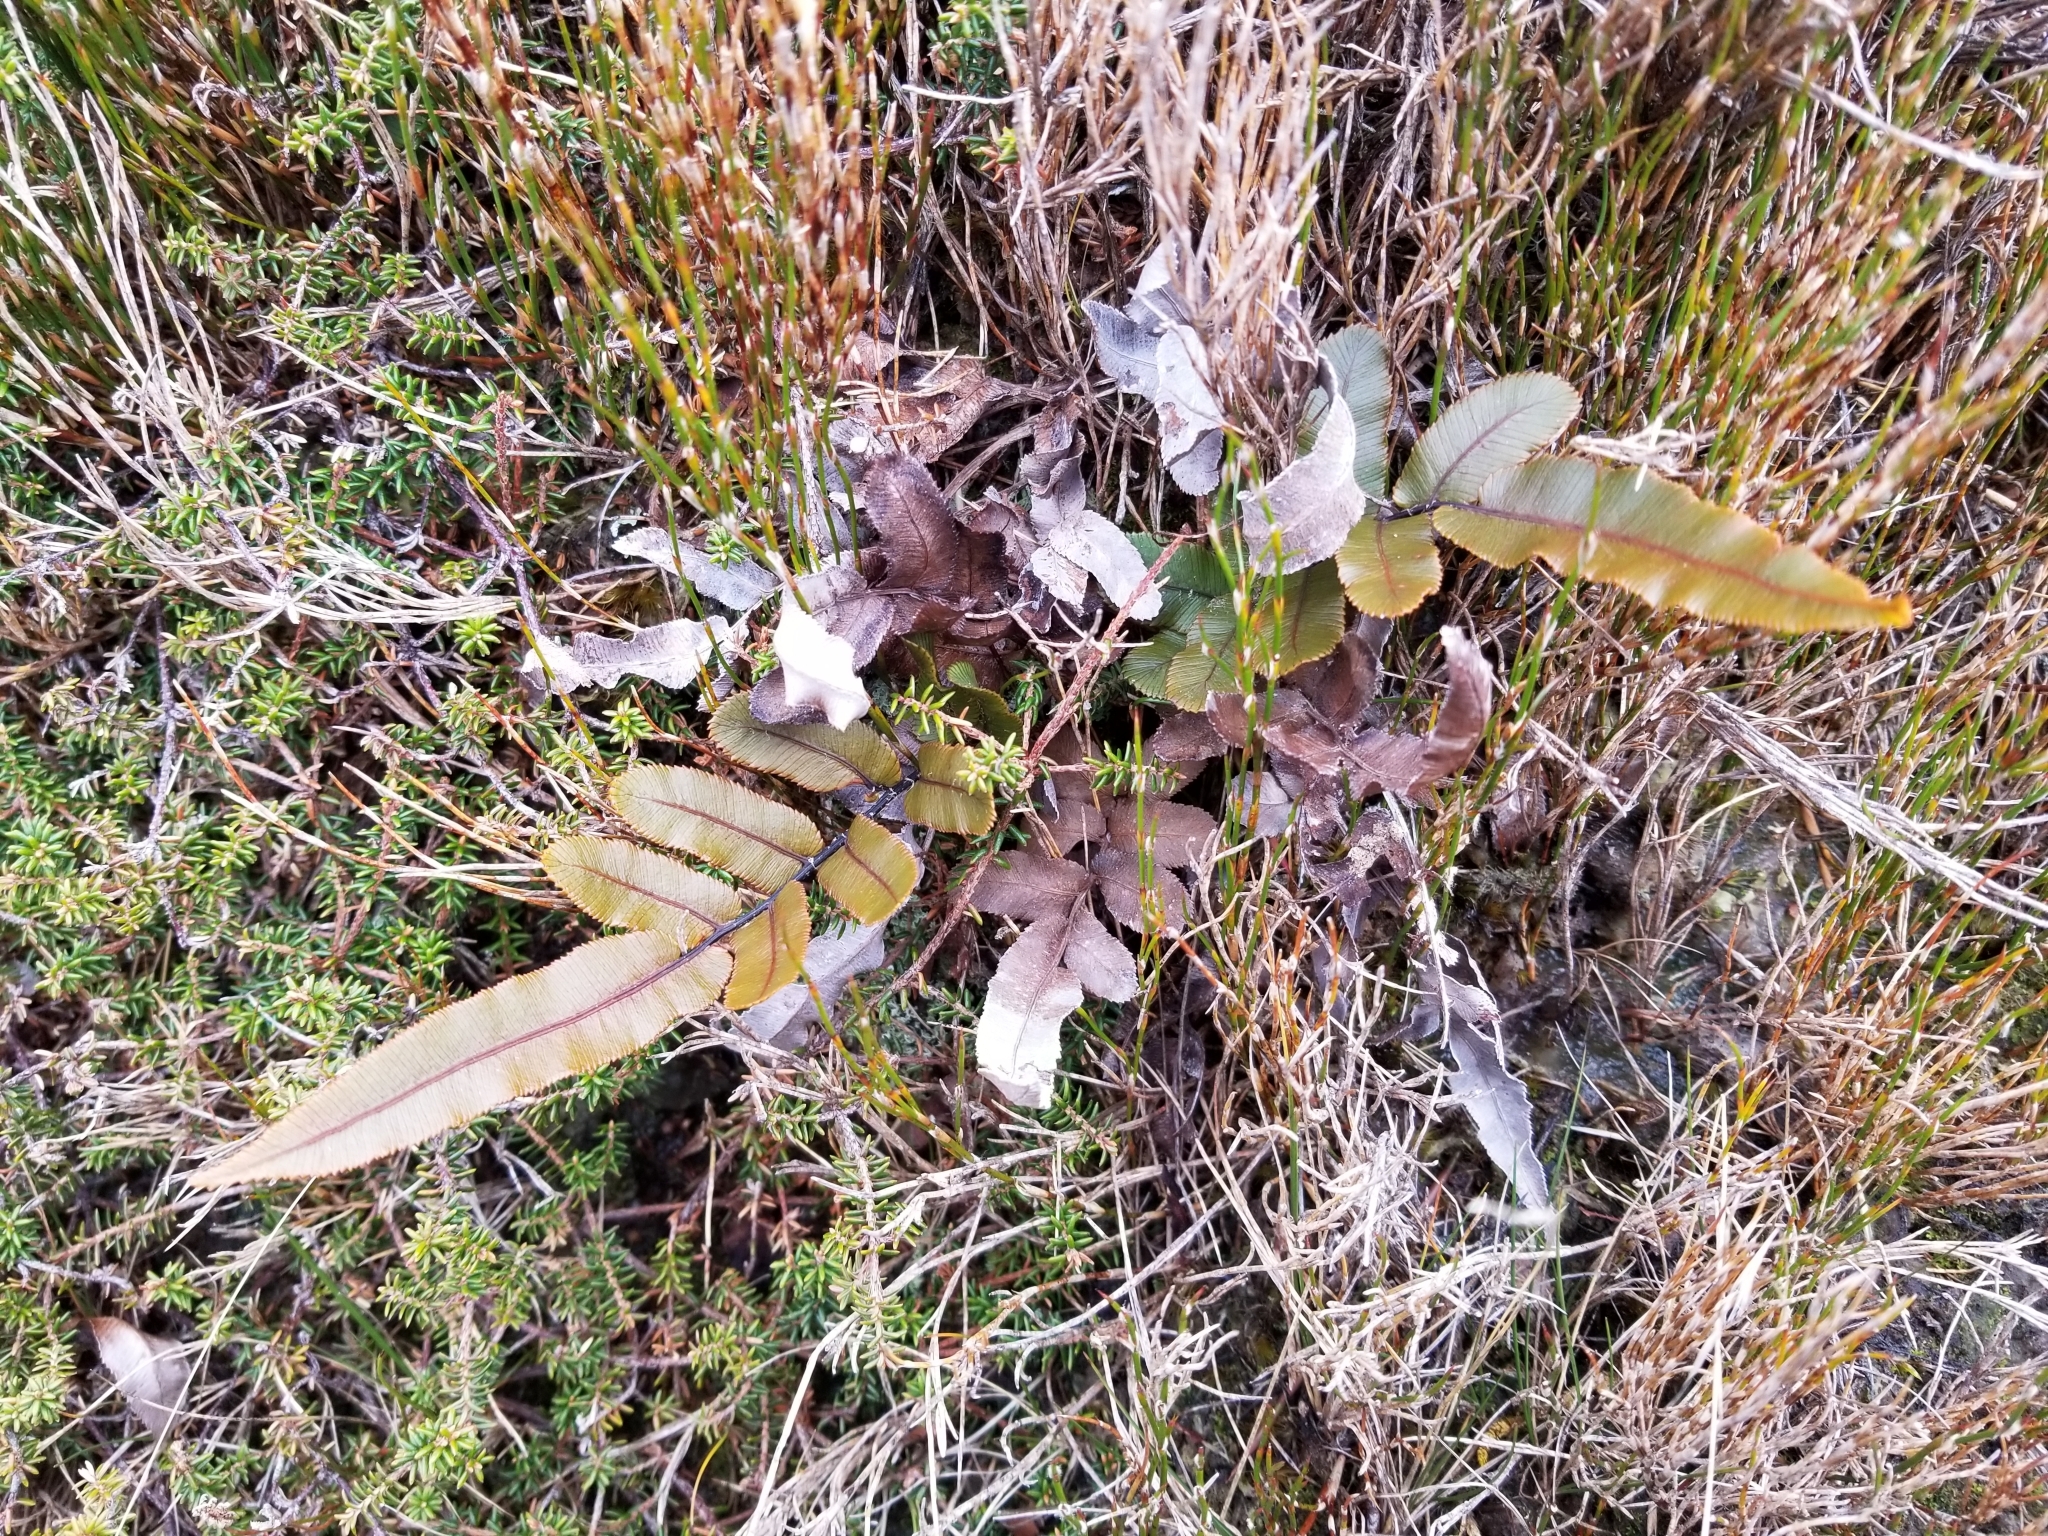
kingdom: Plantae
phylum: Tracheophyta
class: Polypodiopsida
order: Polypodiales
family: Blechnaceae
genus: Parablechnum
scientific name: Parablechnum procerum
